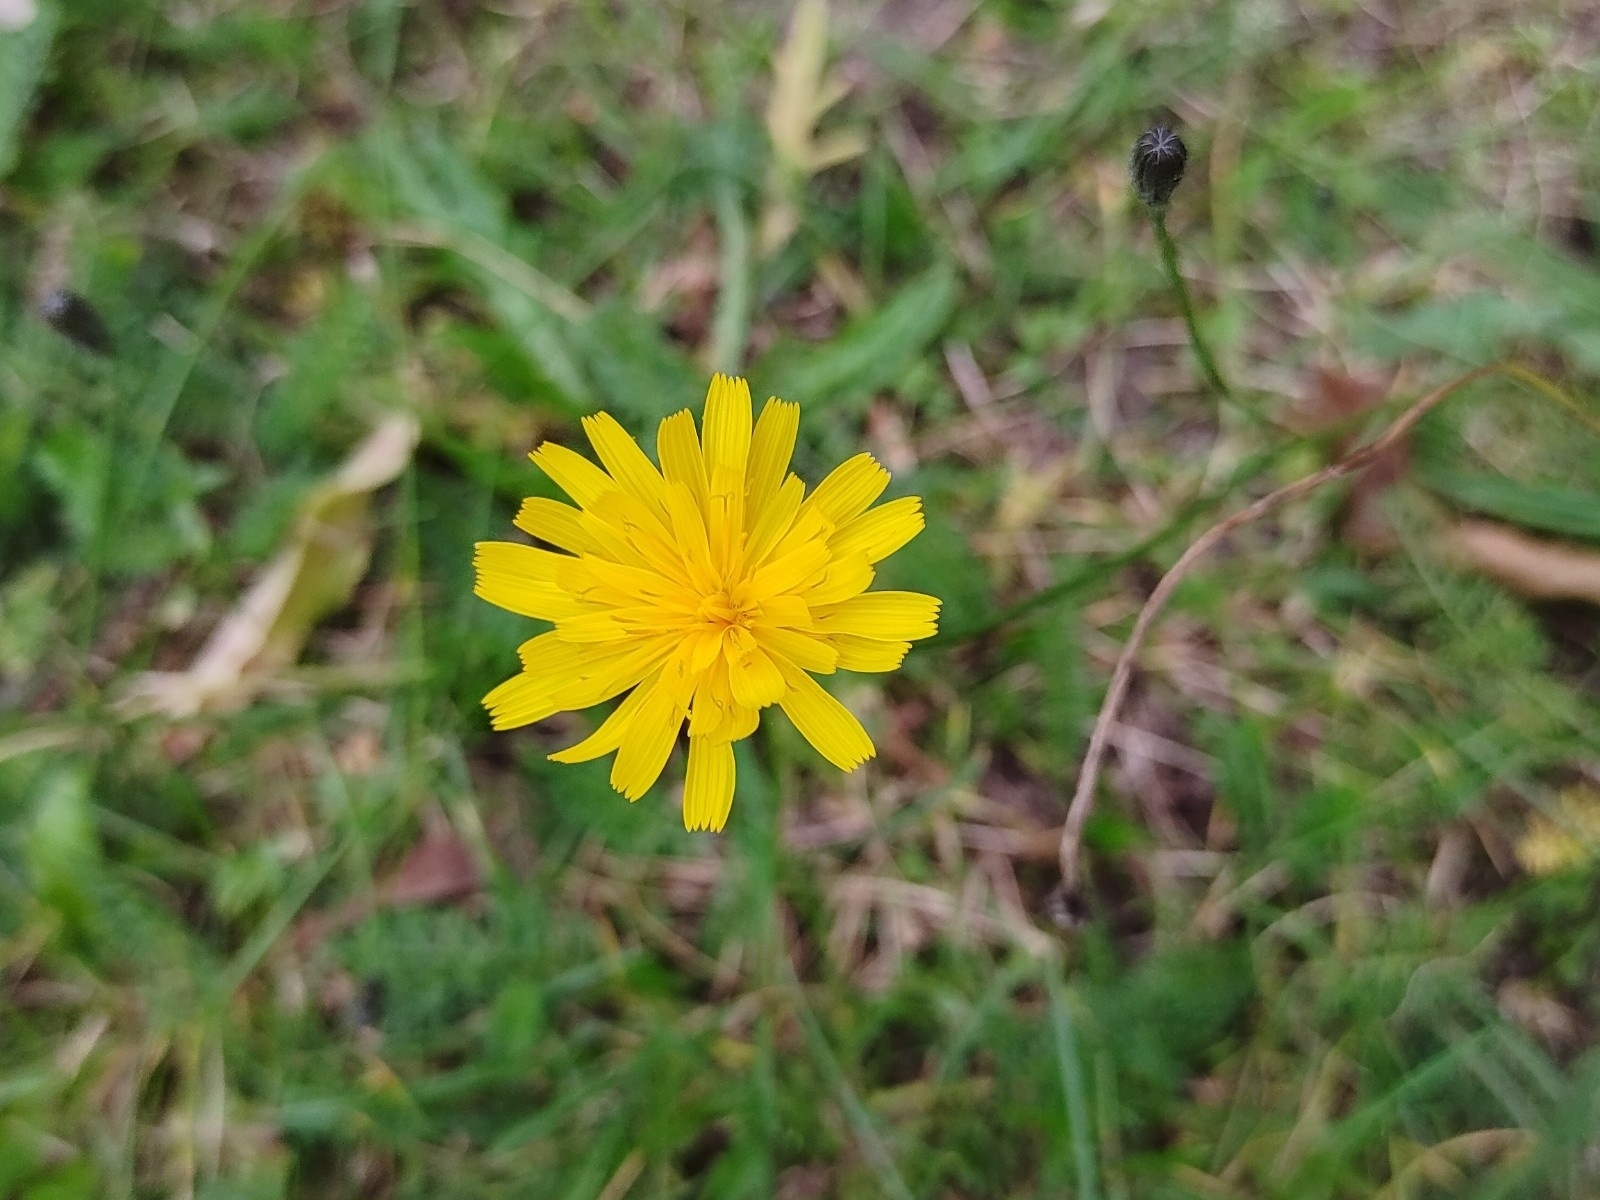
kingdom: Plantae
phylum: Tracheophyta
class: Magnoliopsida
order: Asterales
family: Asteraceae
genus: Scorzoneroides
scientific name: Scorzoneroides autumnalis
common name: Autumn hawkbit
